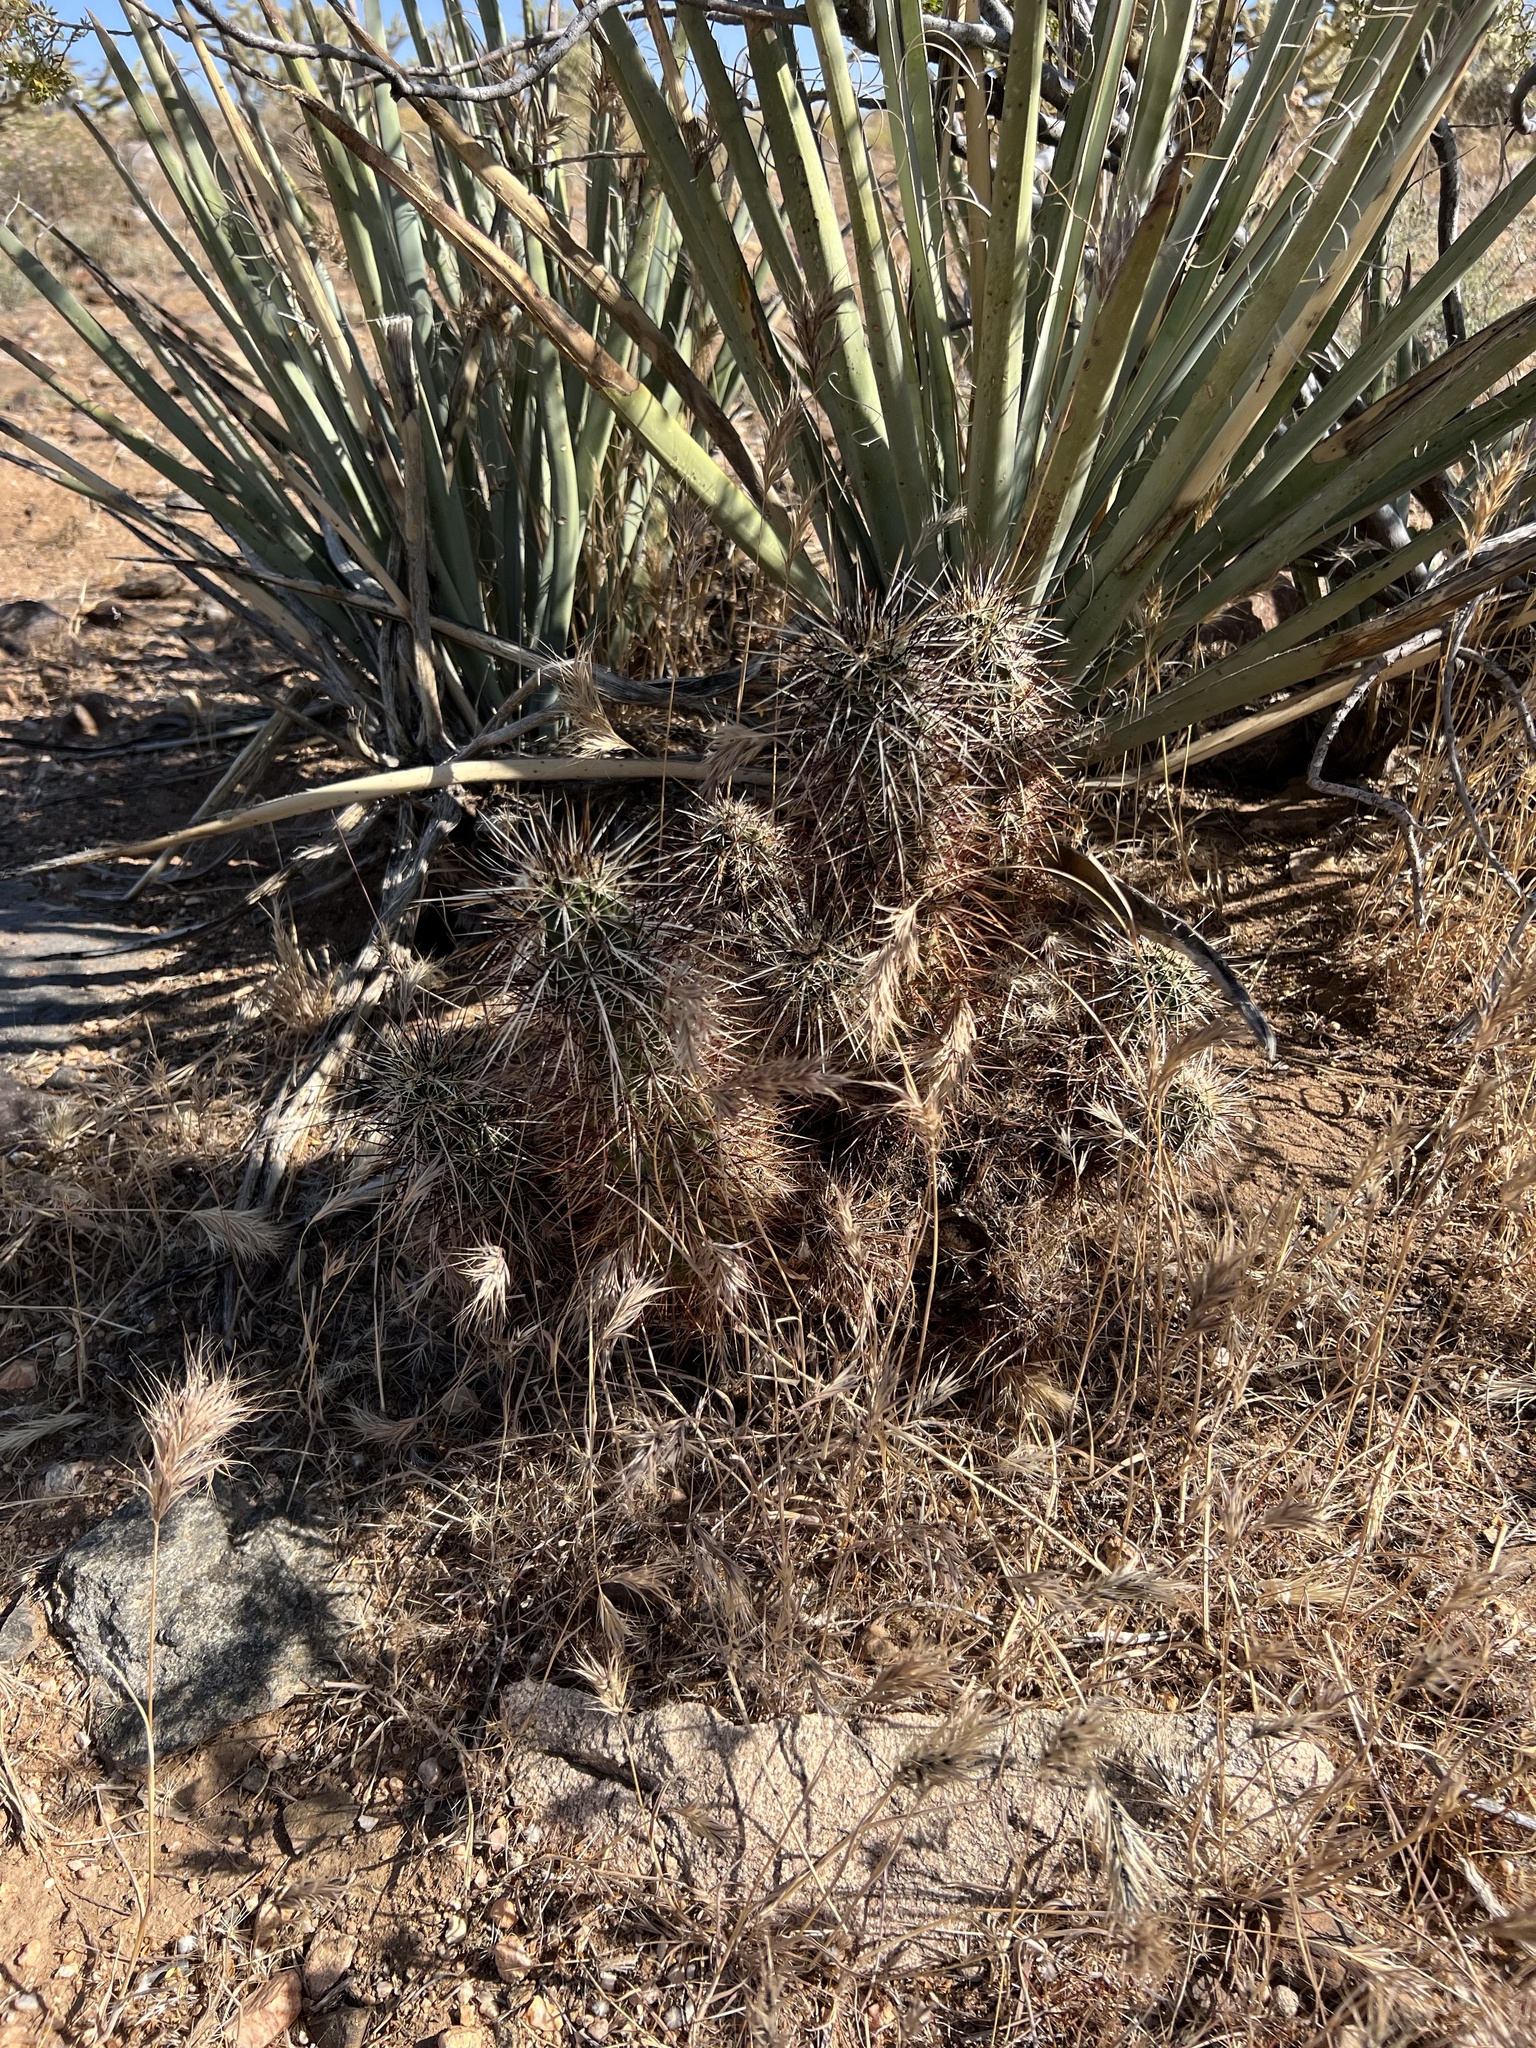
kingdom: Plantae
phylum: Tracheophyta
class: Magnoliopsida
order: Caryophyllales
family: Cactaceae
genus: Echinocereus
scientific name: Echinocereus engelmannii
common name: Engelmann's hedgehog cactus
